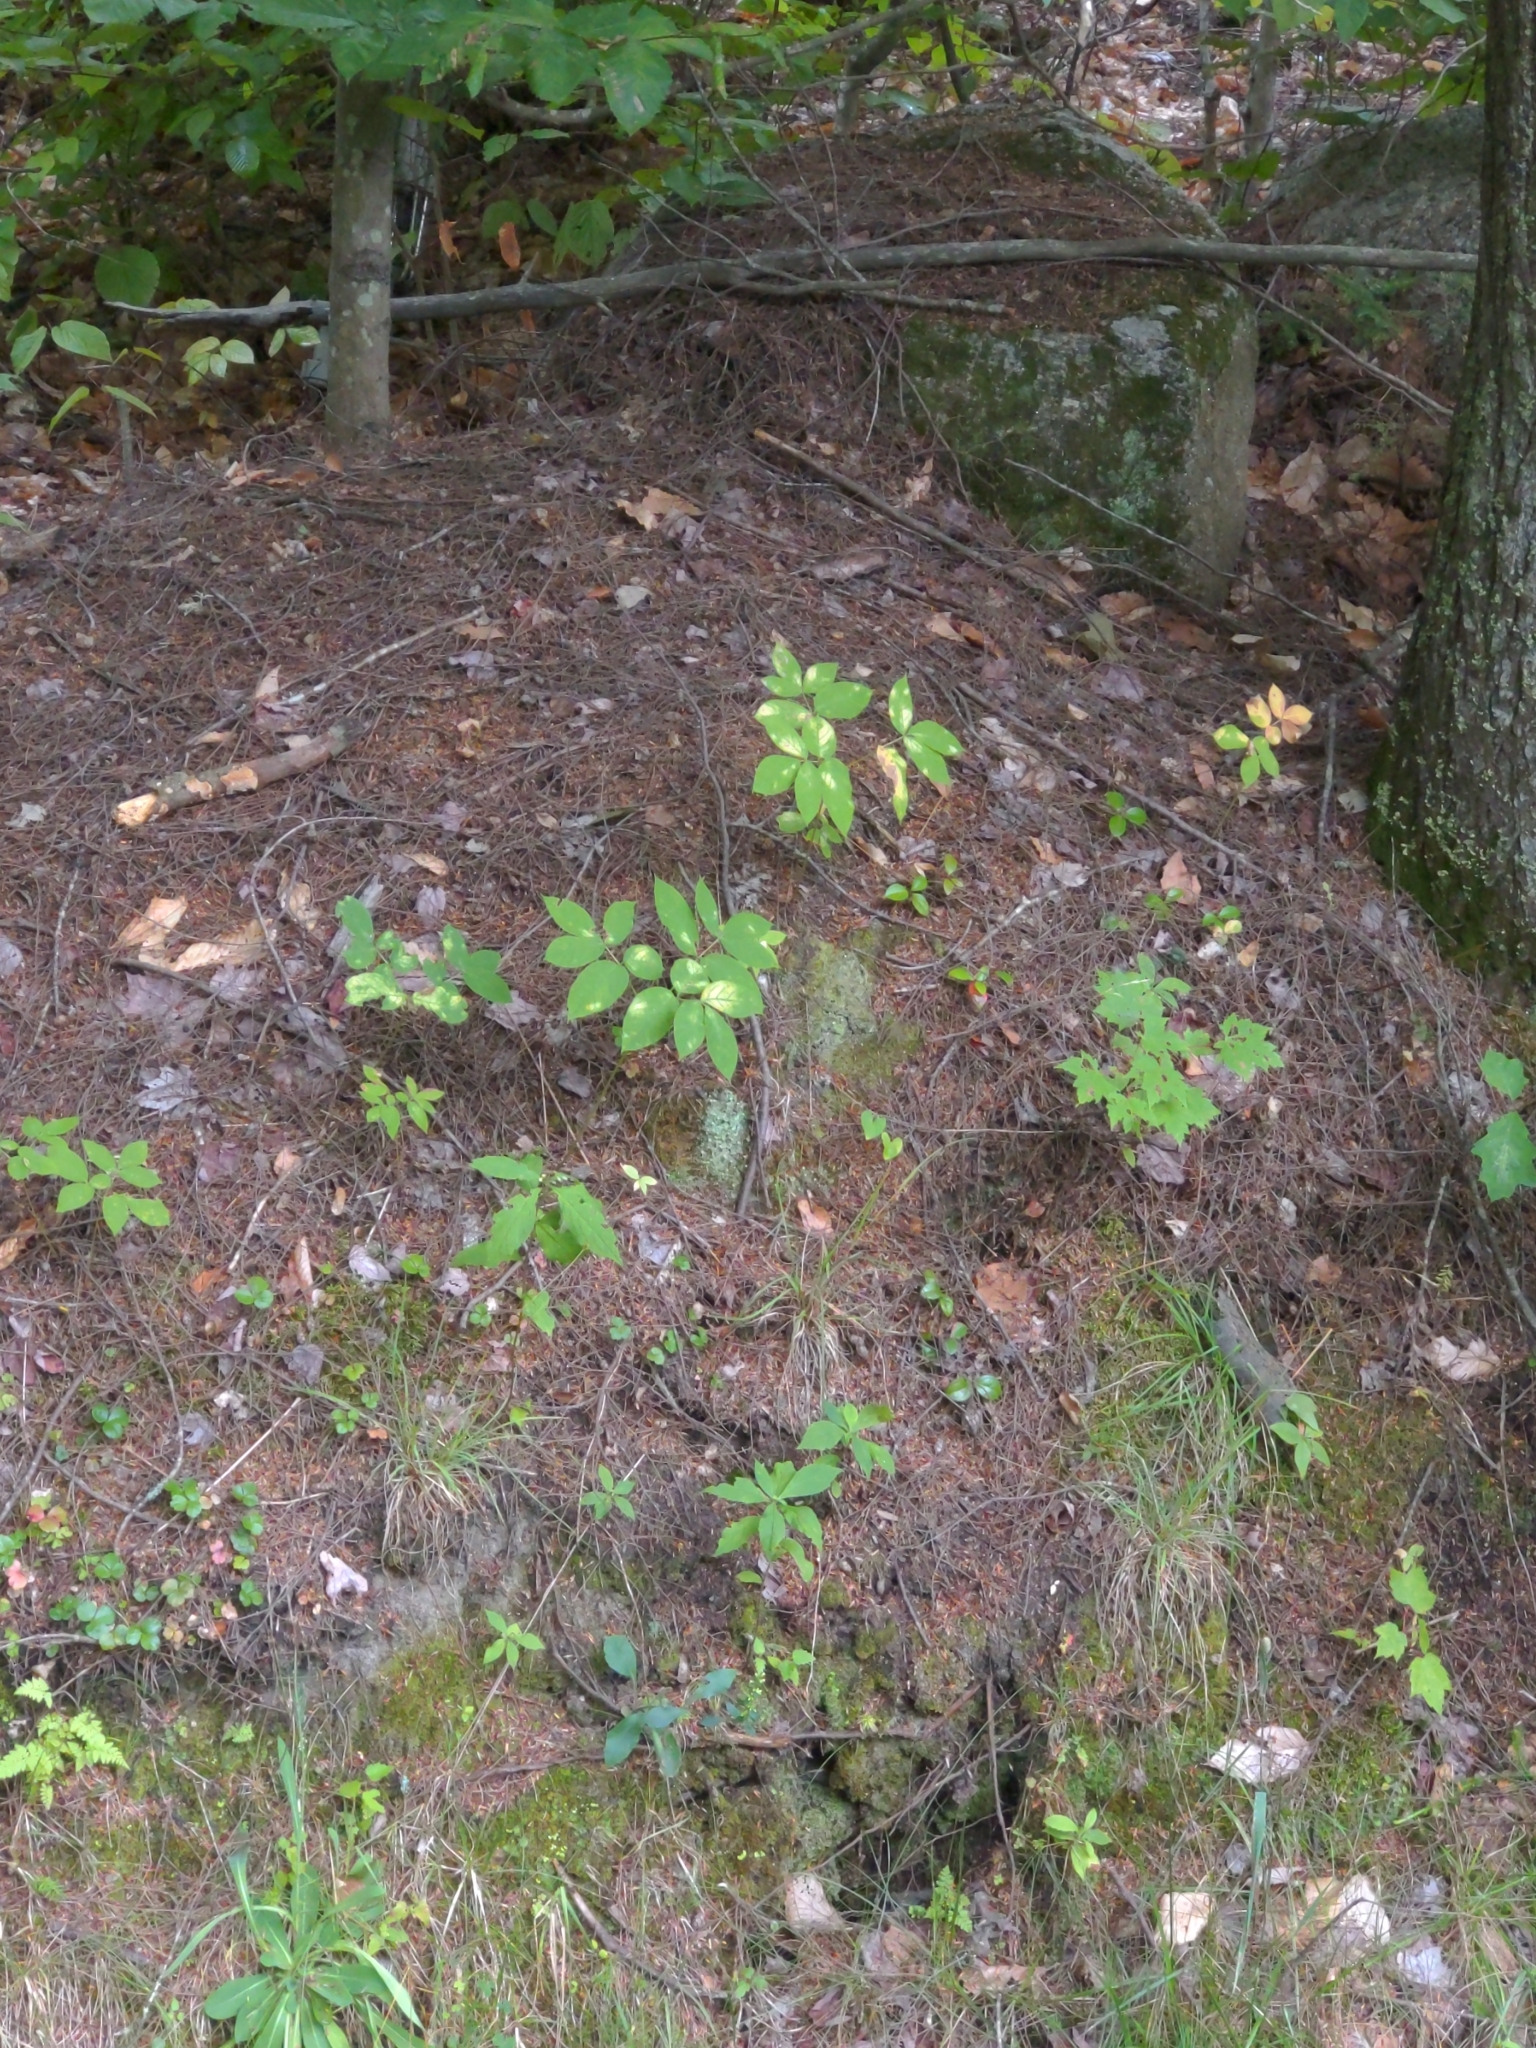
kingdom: Plantae
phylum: Tracheophyta
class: Magnoliopsida
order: Apiales
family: Araliaceae
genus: Aralia
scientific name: Aralia nudicaulis
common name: Wild sarsaparilla
